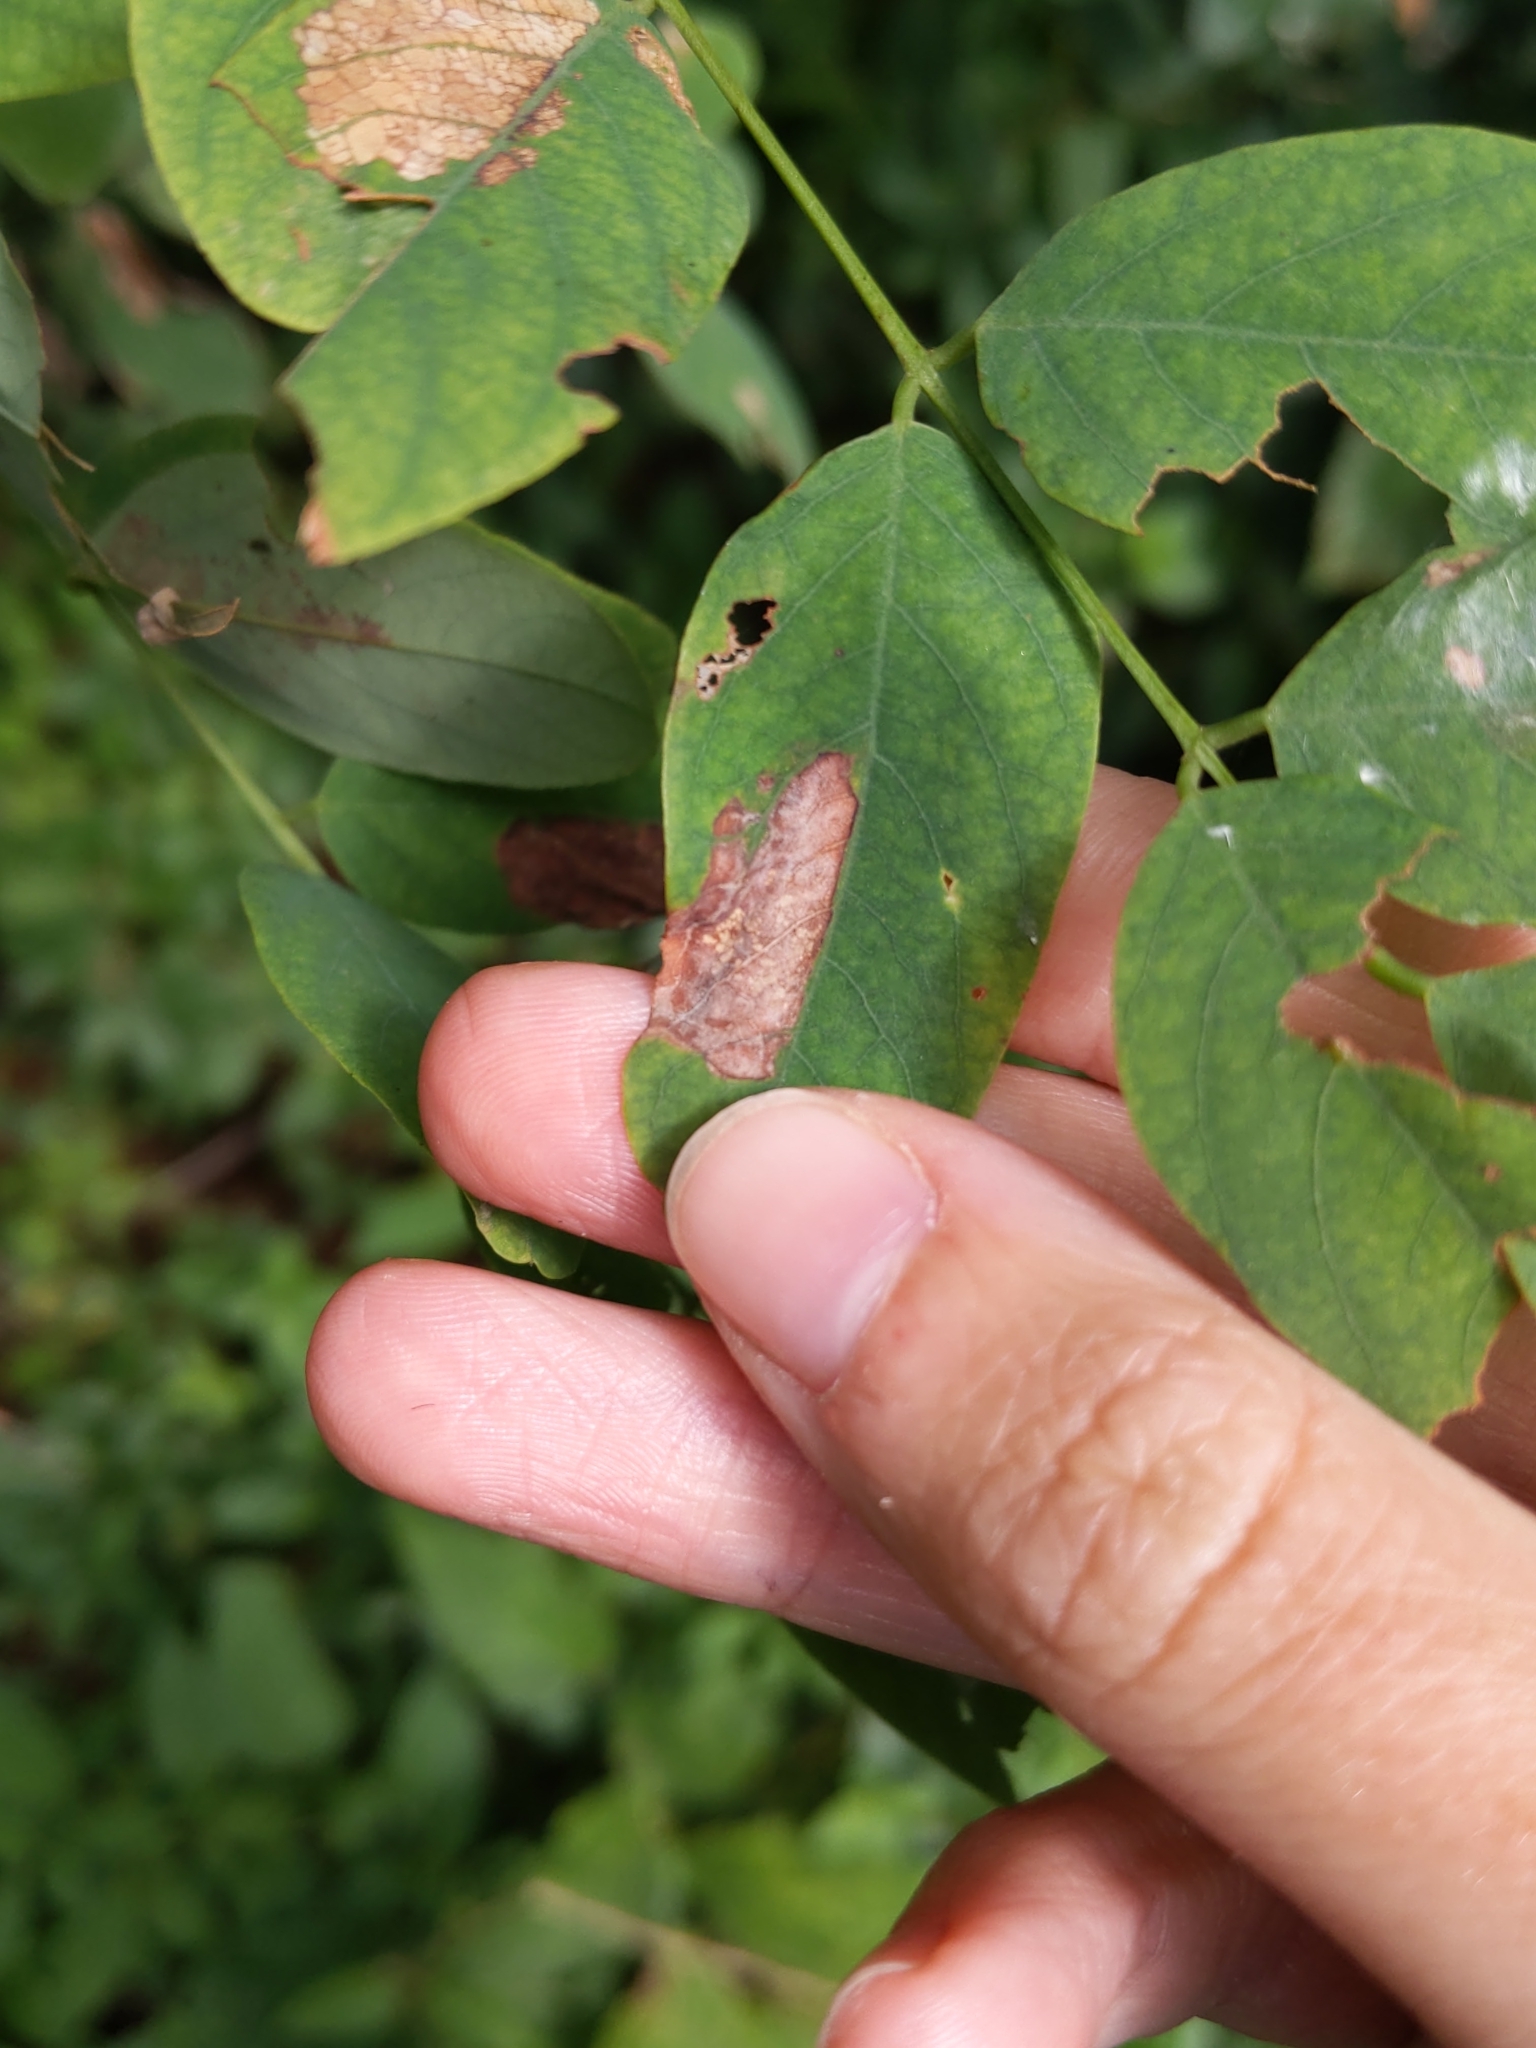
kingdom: Animalia
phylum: Arthropoda
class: Insecta
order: Lepidoptera
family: Gracillariidae
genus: Macrosaccus
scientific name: Macrosaccus robiniella
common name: Leaf blotch miner moth
